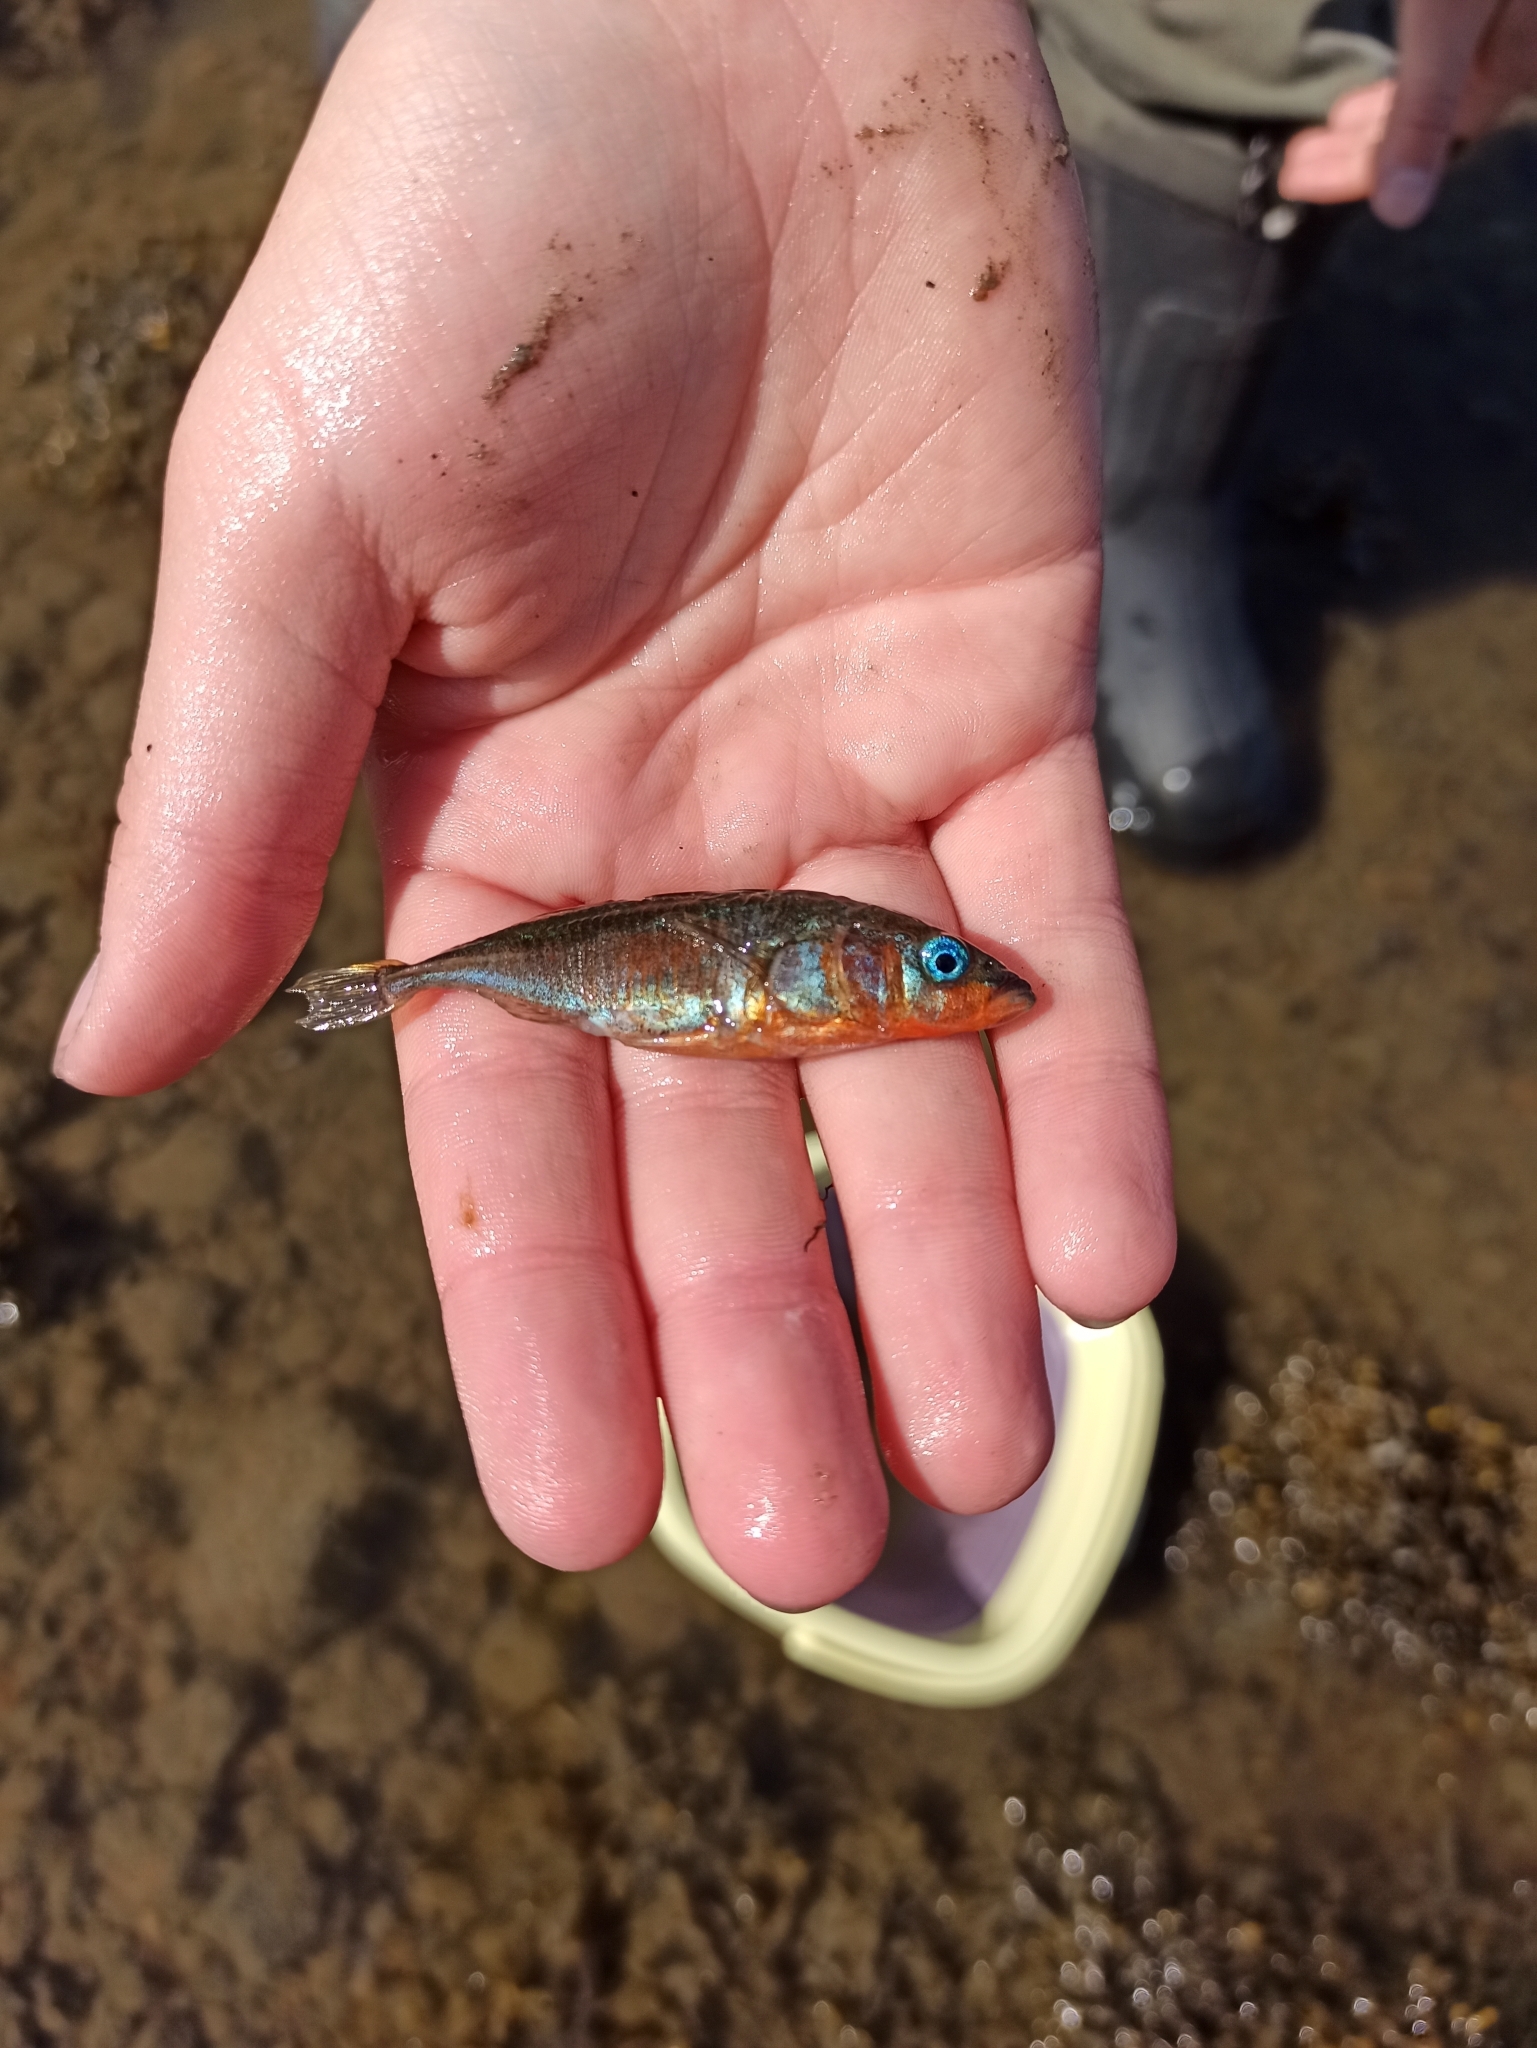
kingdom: Animalia
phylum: Chordata
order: Gasterosteiformes
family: Gasterosteidae
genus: Gasterosteus
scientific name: Gasterosteus aculeatus
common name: Three-spined stickleback
